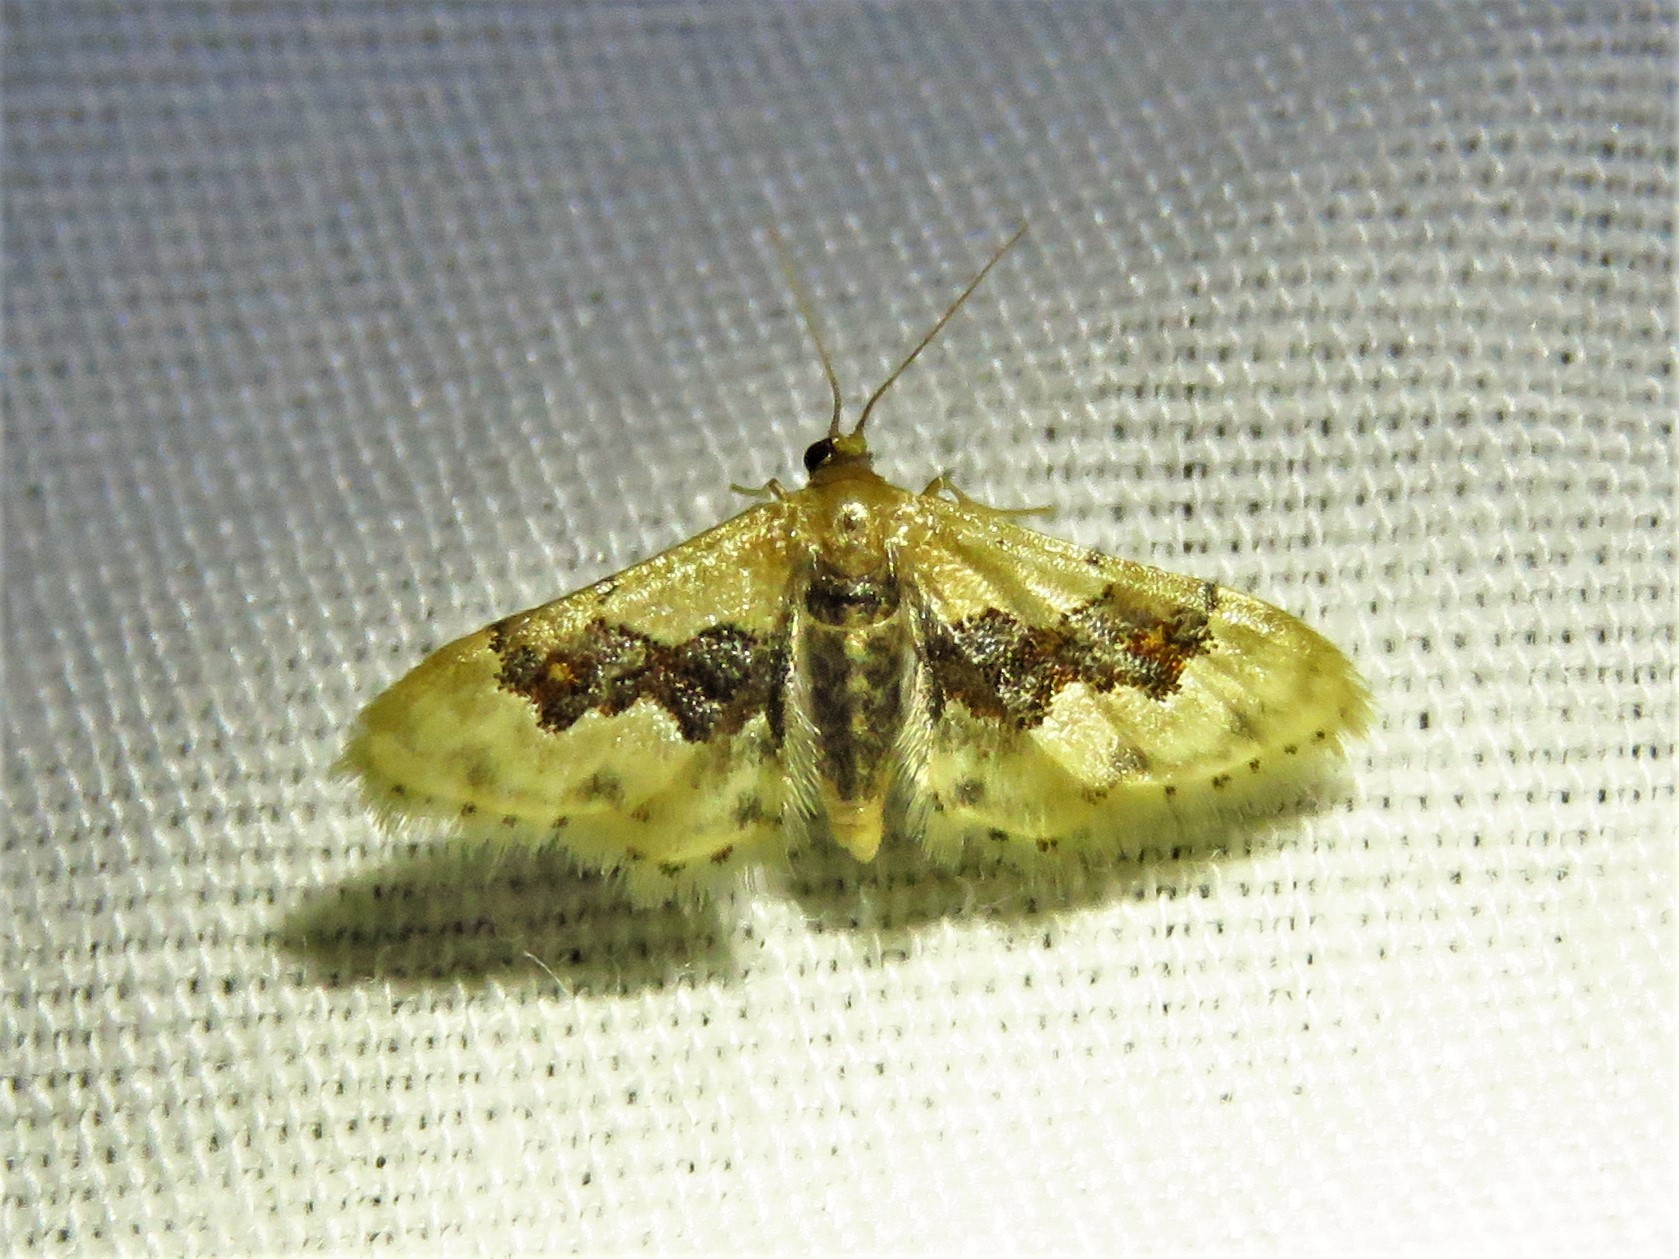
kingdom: Animalia
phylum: Arthropoda
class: Insecta
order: Lepidoptera
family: Geometridae
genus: Idaea
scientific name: Idaea gemmata
